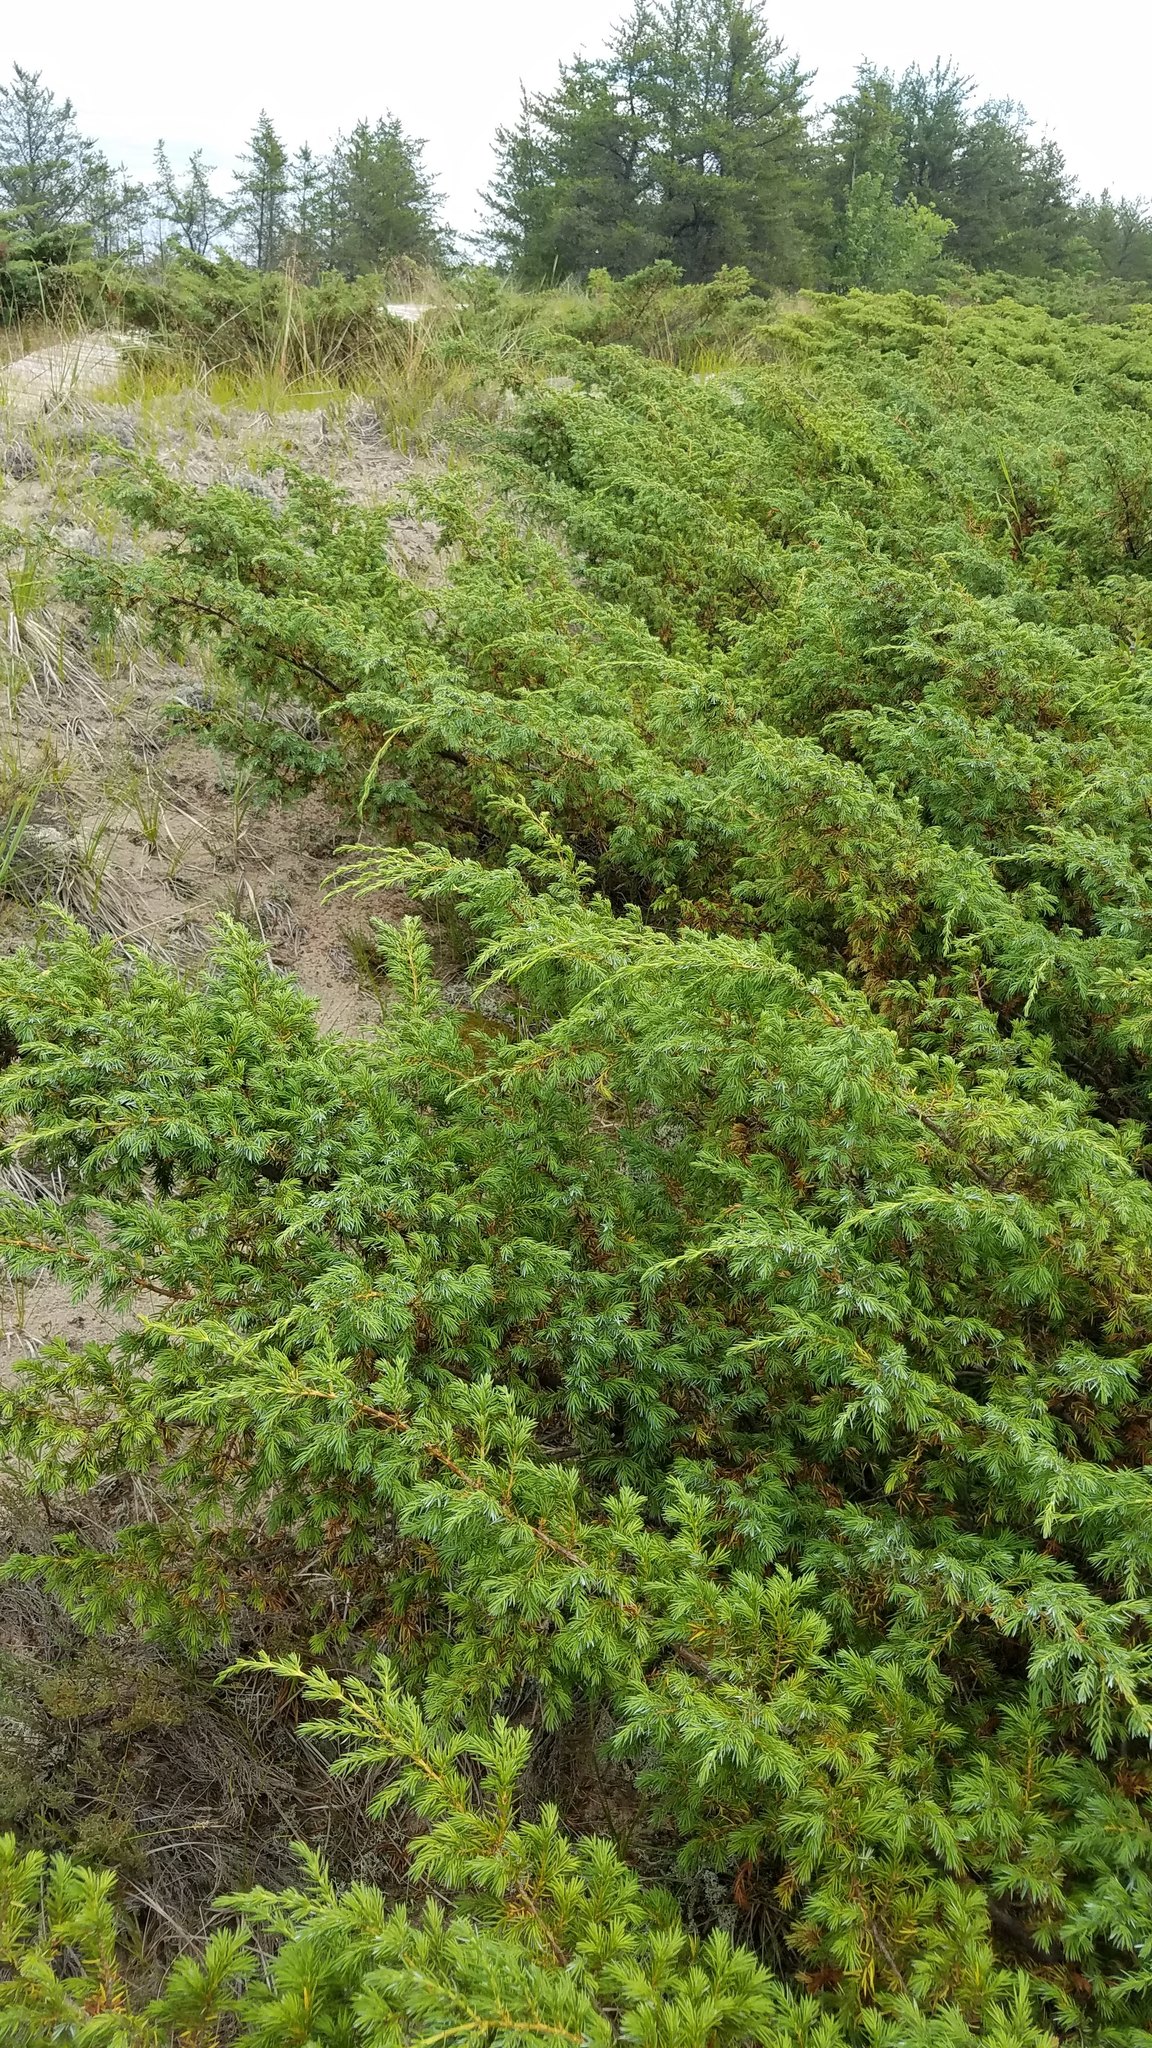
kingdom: Plantae
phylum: Tracheophyta
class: Pinopsida
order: Pinales
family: Cupressaceae
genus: Juniperus
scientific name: Juniperus communis
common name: Common juniper
